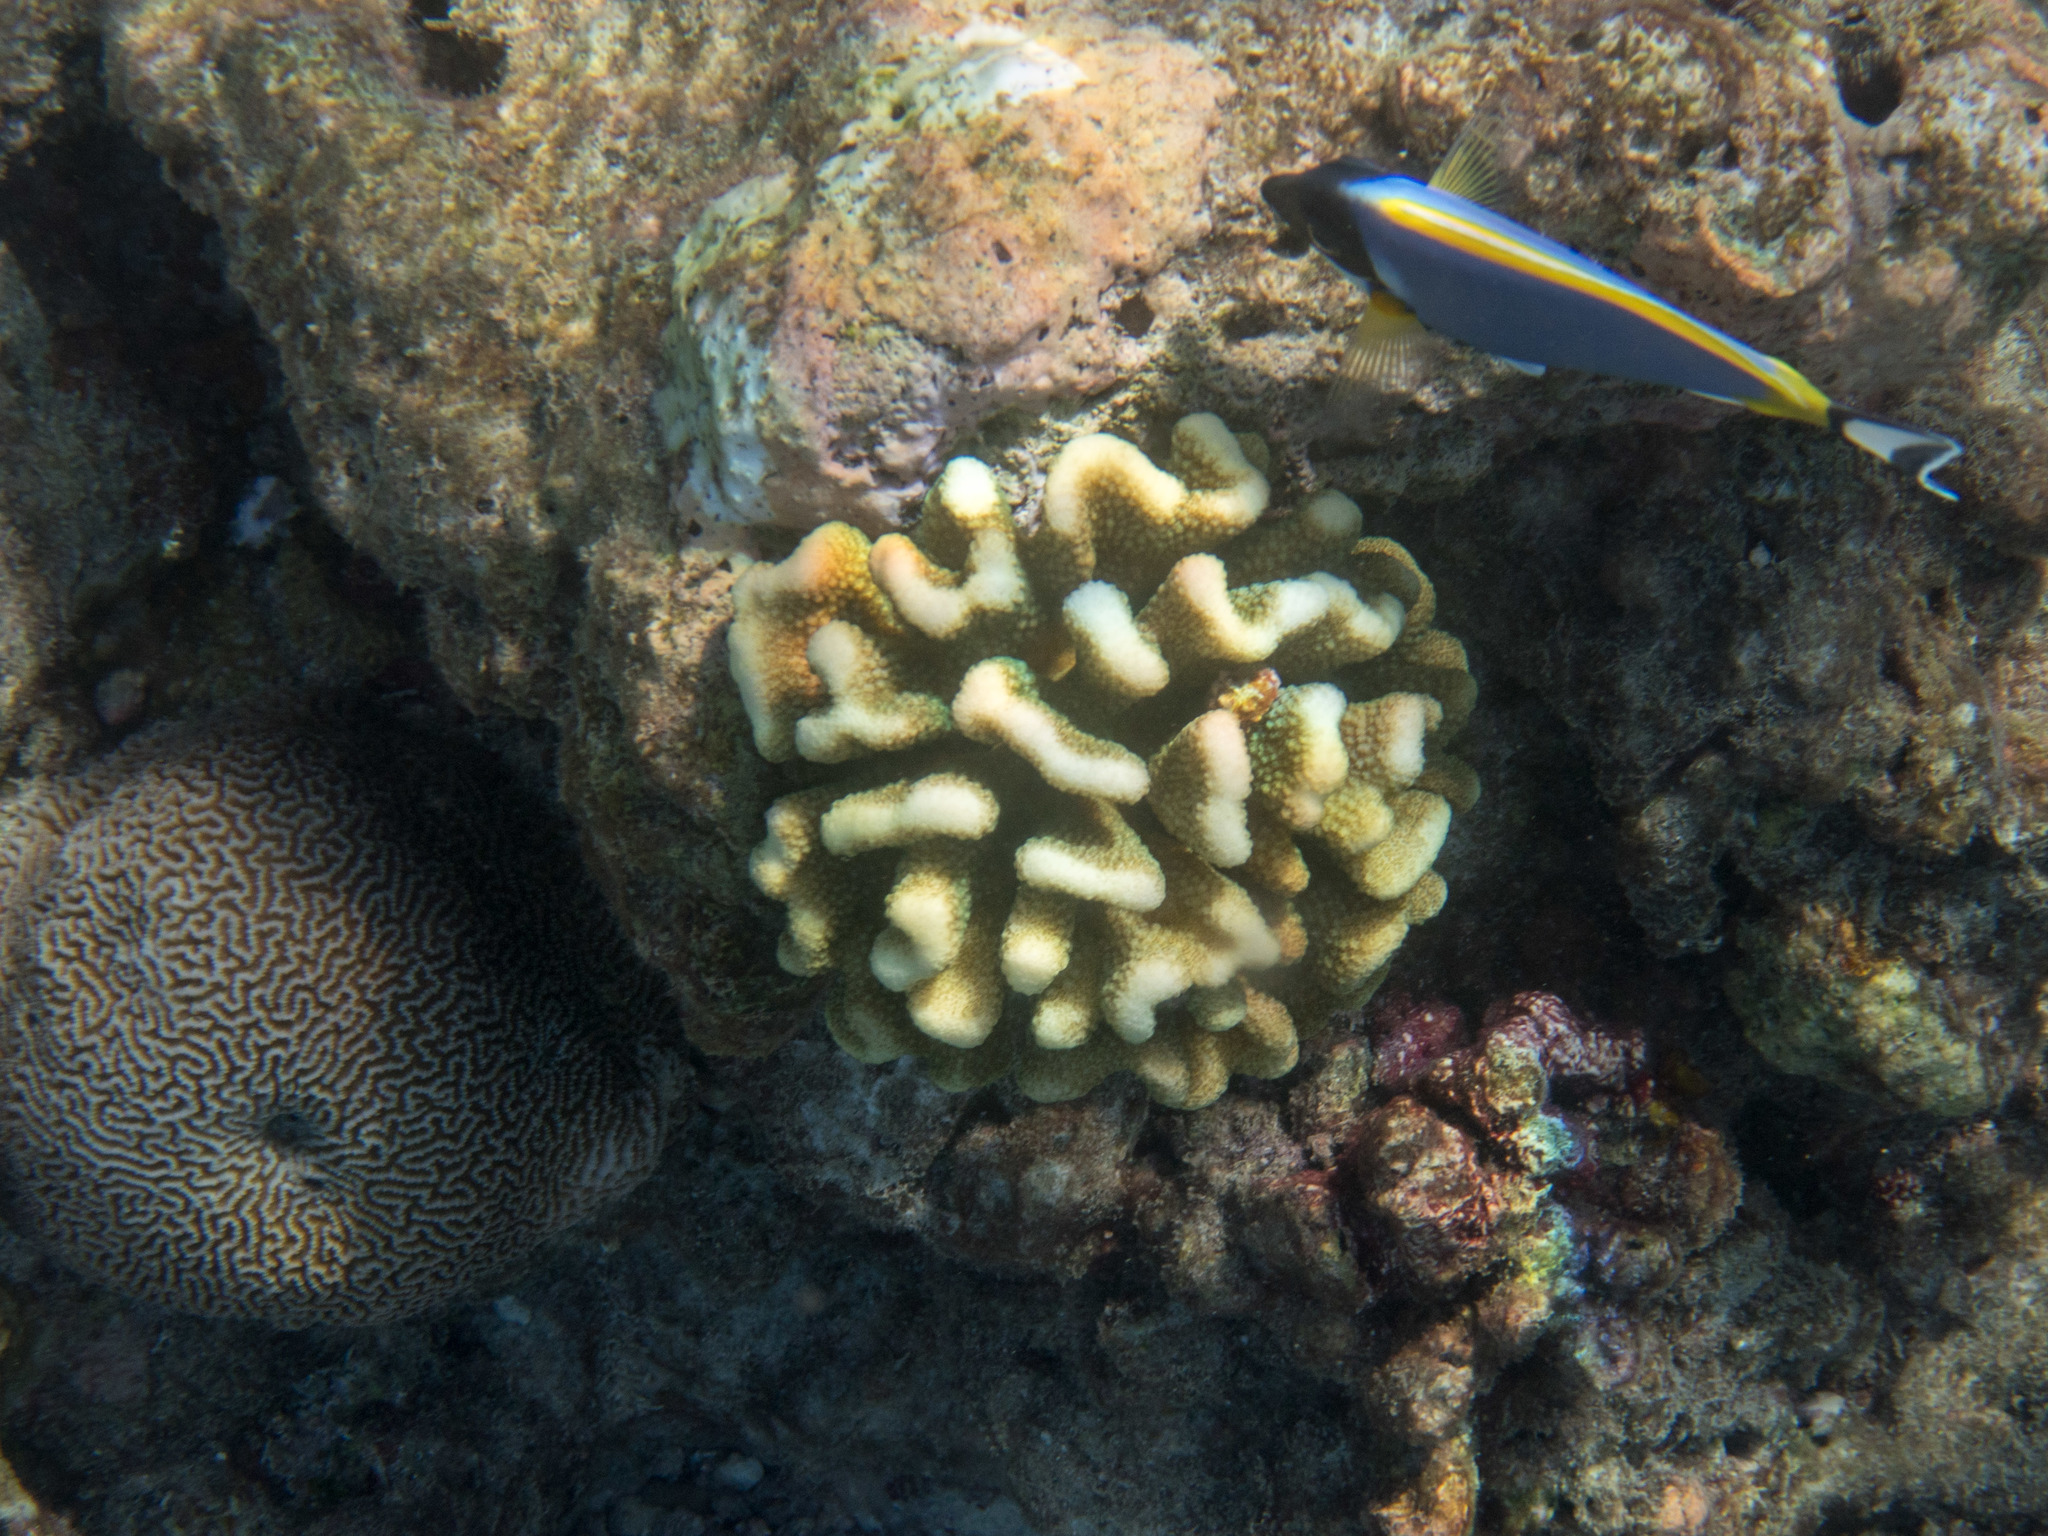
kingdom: Animalia
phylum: Cnidaria
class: Anthozoa
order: Scleractinia
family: Pocilloporidae
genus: Pocillopora
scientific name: Pocillopora verrucosa
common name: Cauliflower coral
